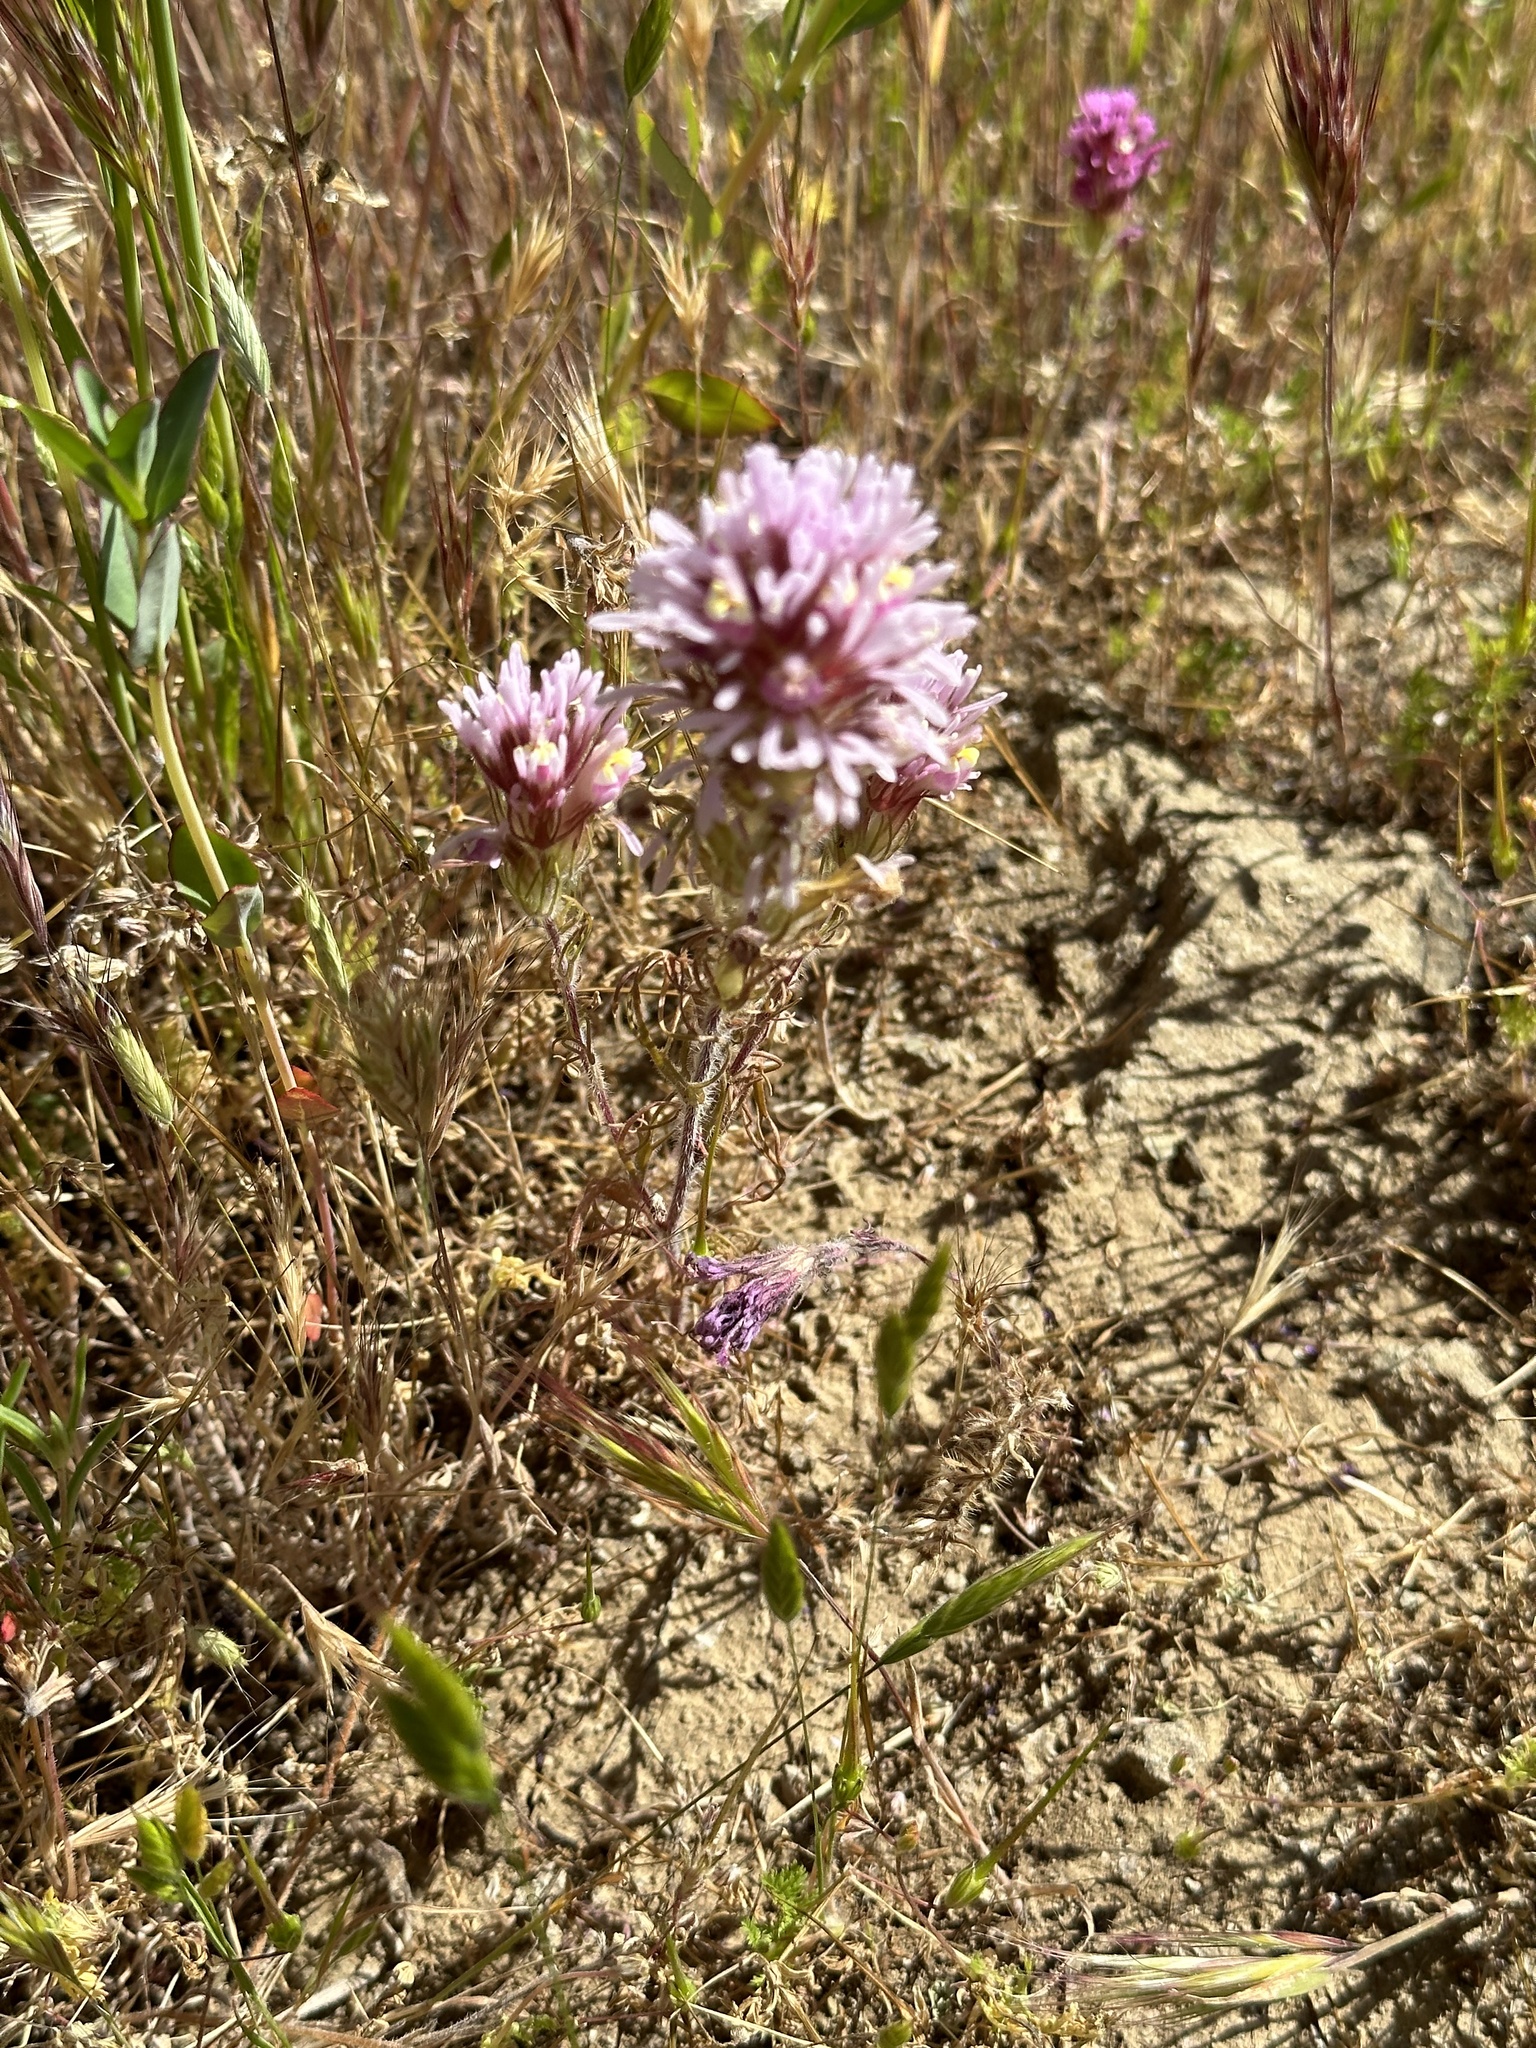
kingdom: Plantae
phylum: Tracheophyta
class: Magnoliopsida
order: Lamiales
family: Orobanchaceae
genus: Castilleja
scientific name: Castilleja exserta
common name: Purple owl-clover
